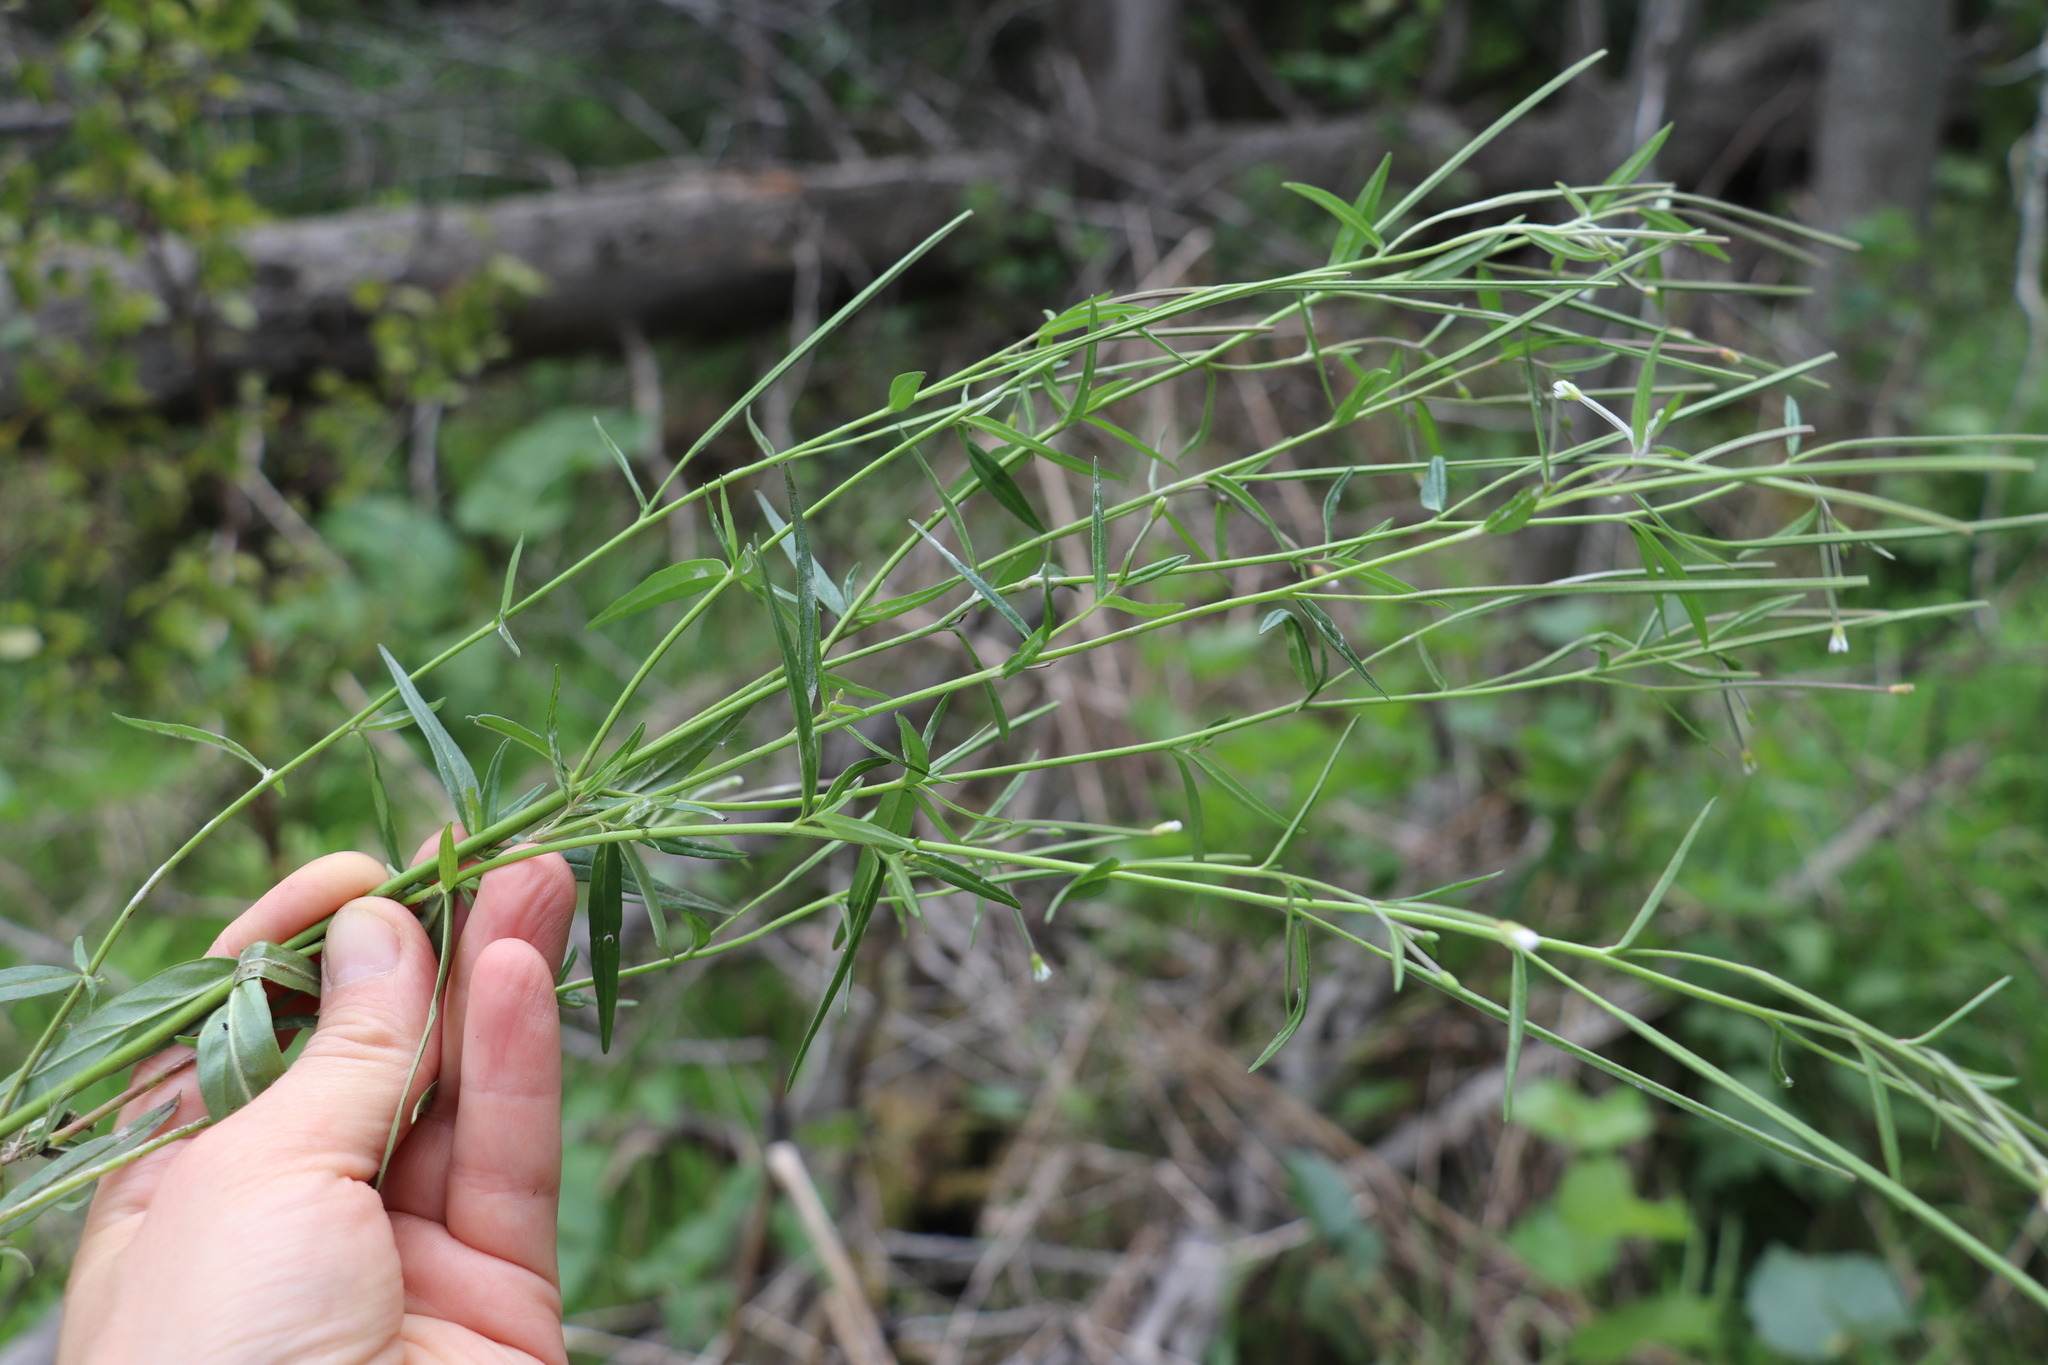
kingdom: Plantae
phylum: Tracheophyta
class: Magnoliopsida
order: Myrtales
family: Onagraceae
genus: Epilobium
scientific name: Epilobium palustre
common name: Marsh willowherb
